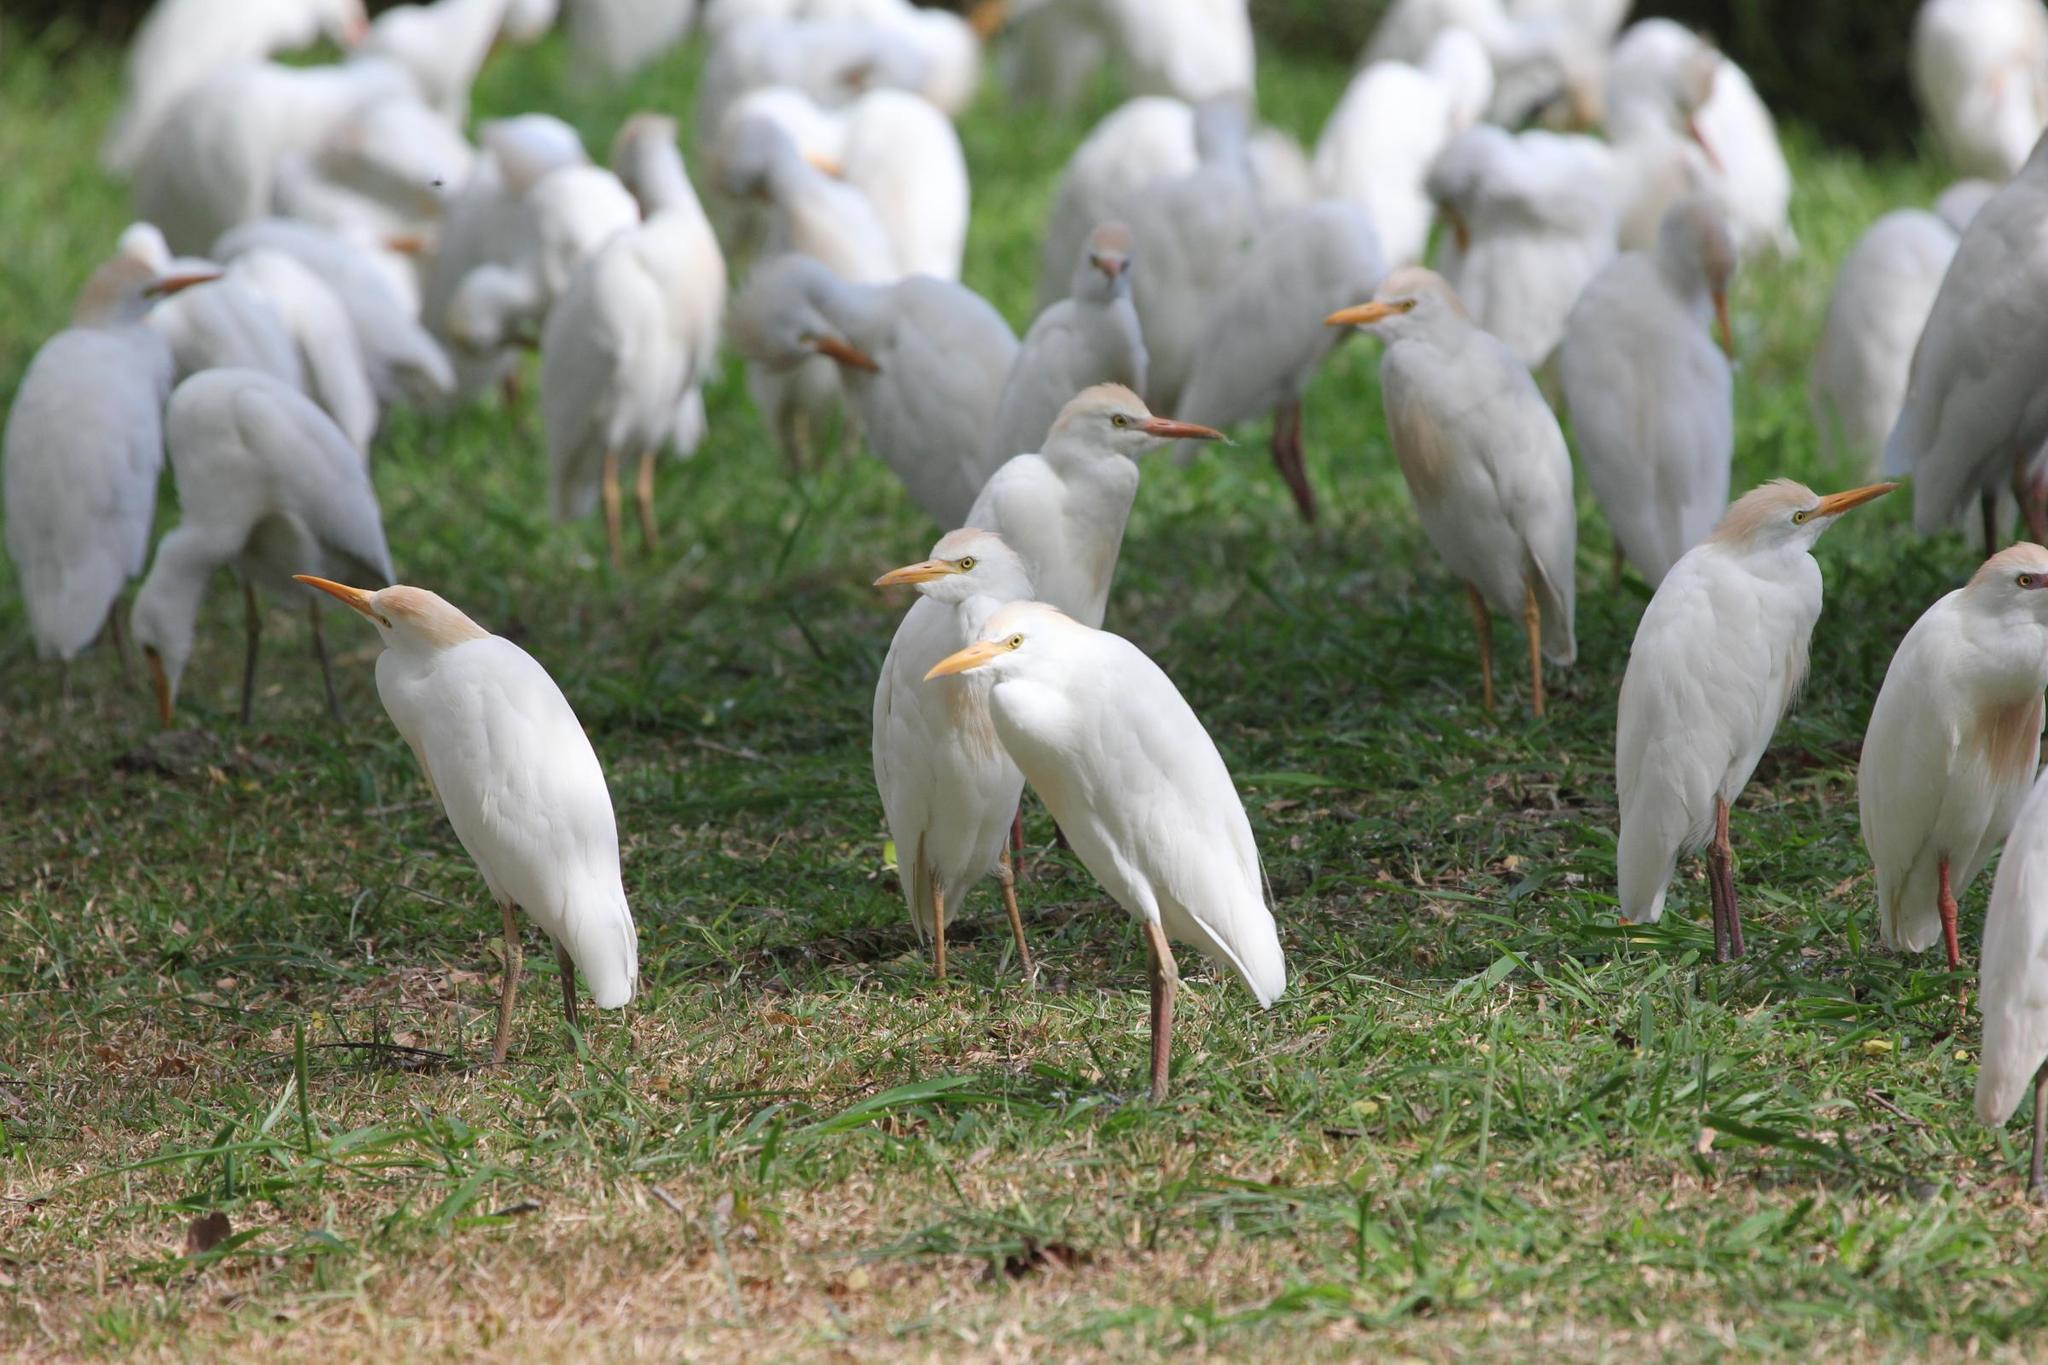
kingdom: Animalia
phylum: Chordata
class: Aves
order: Pelecaniformes
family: Ardeidae
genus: Bubulcus
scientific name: Bubulcus ibis
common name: Cattle egret
